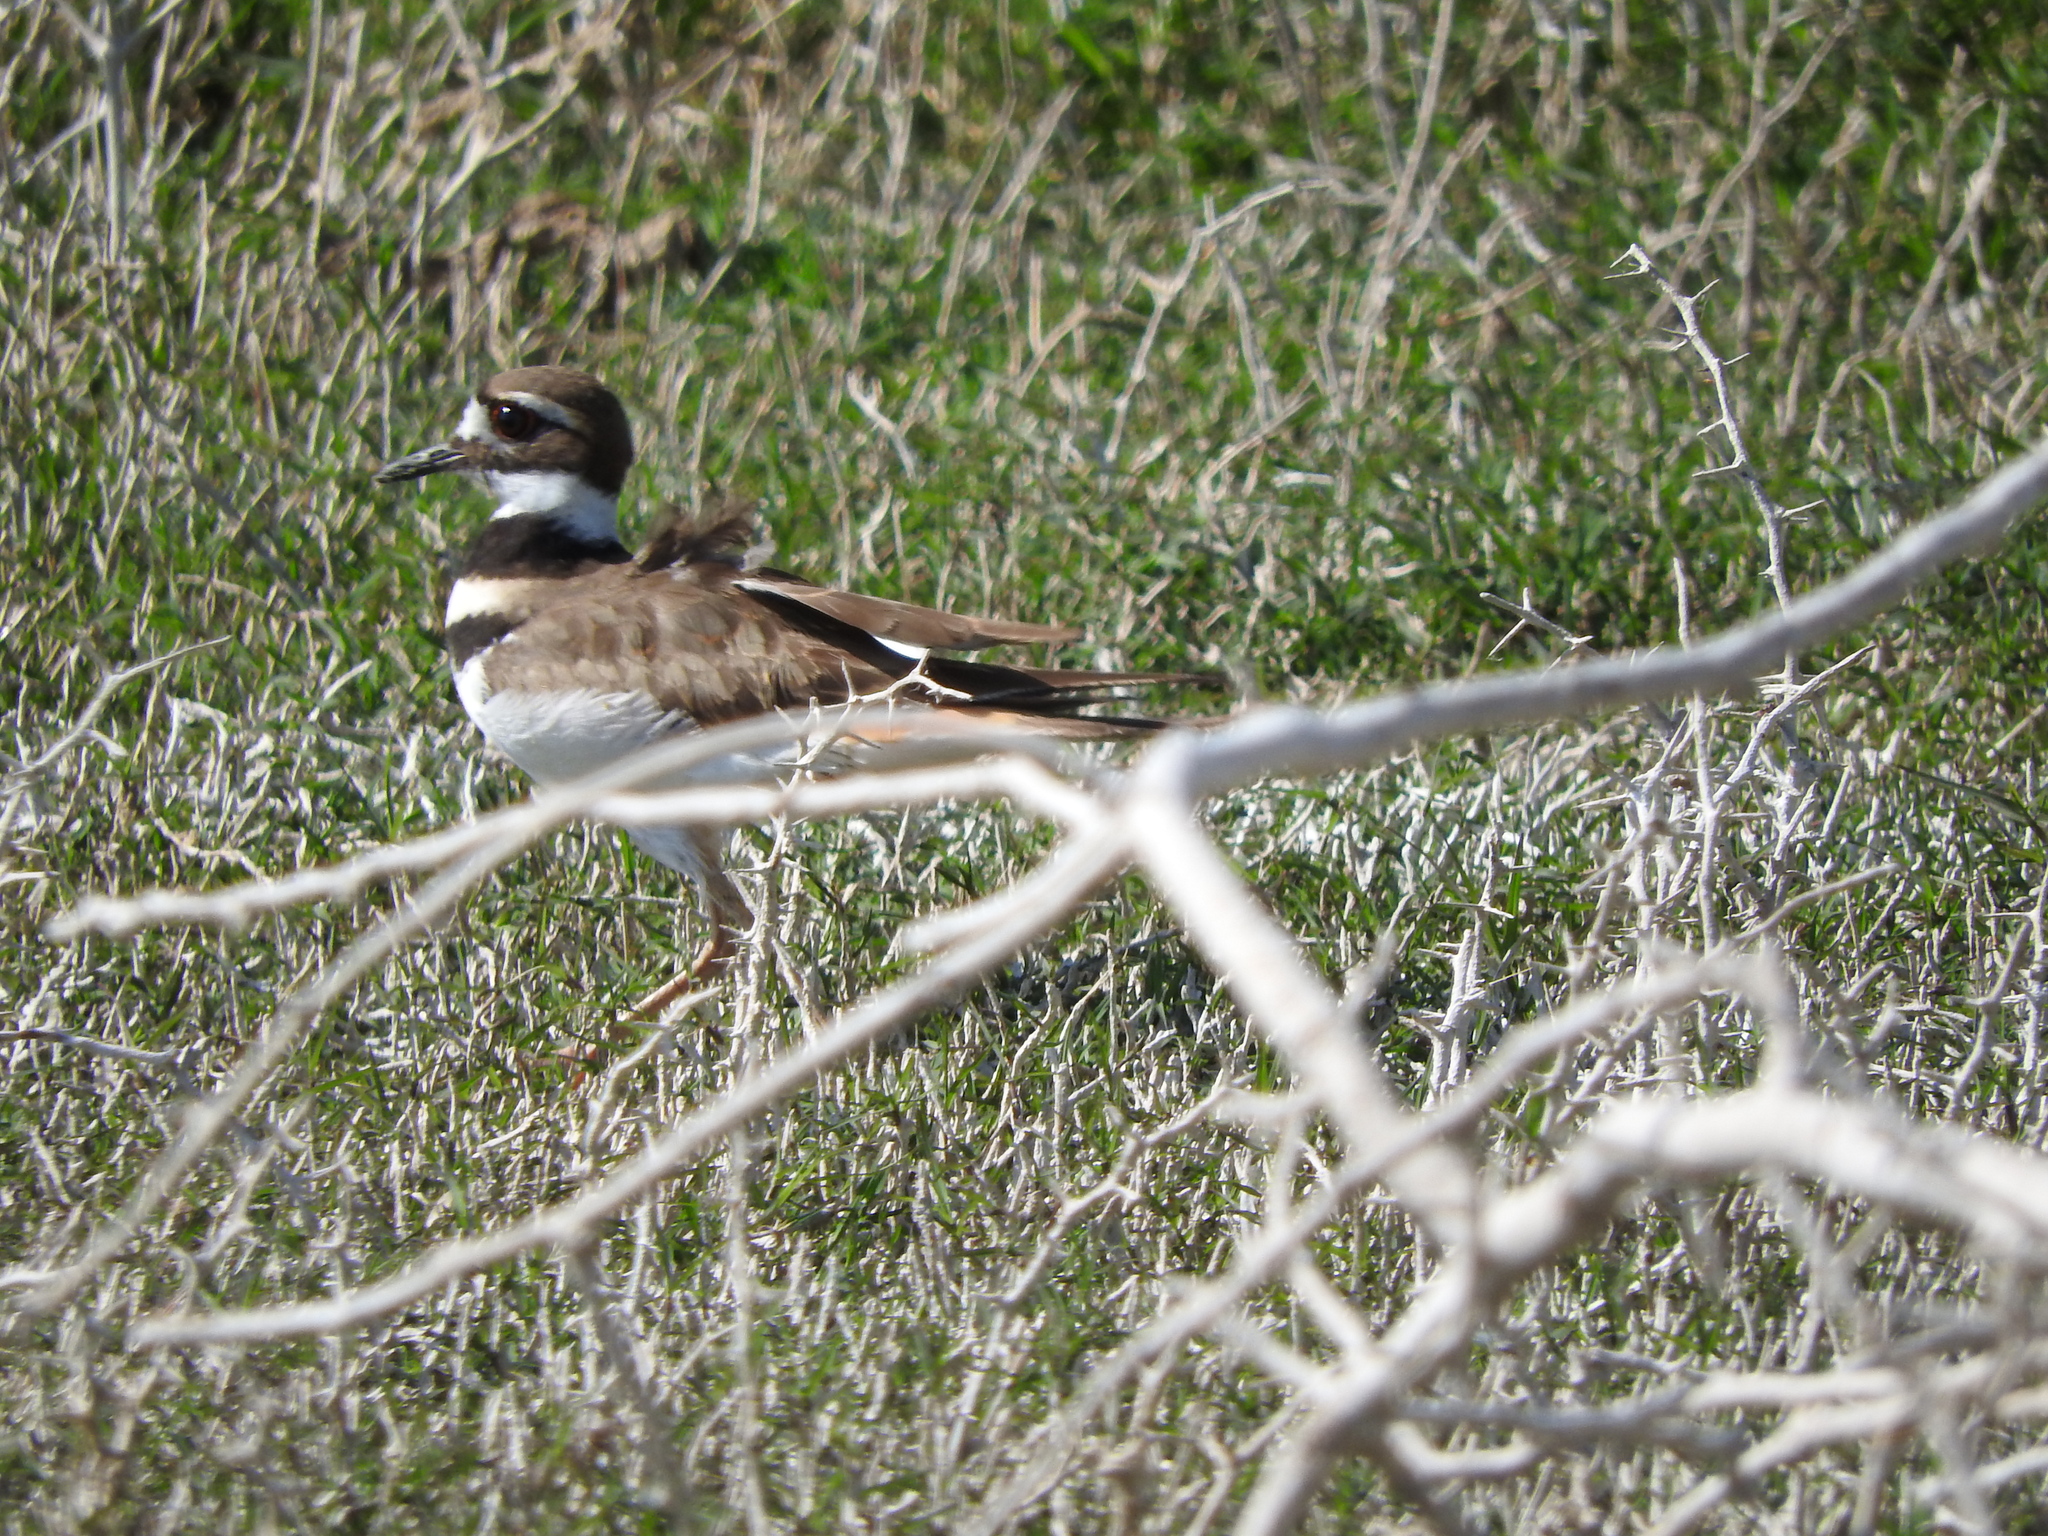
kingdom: Animalia
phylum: Chordata
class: Aves
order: Charadriiformes
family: Charadriidae
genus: Charadrius
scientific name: Charadrius vociferus
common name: Killdeer
